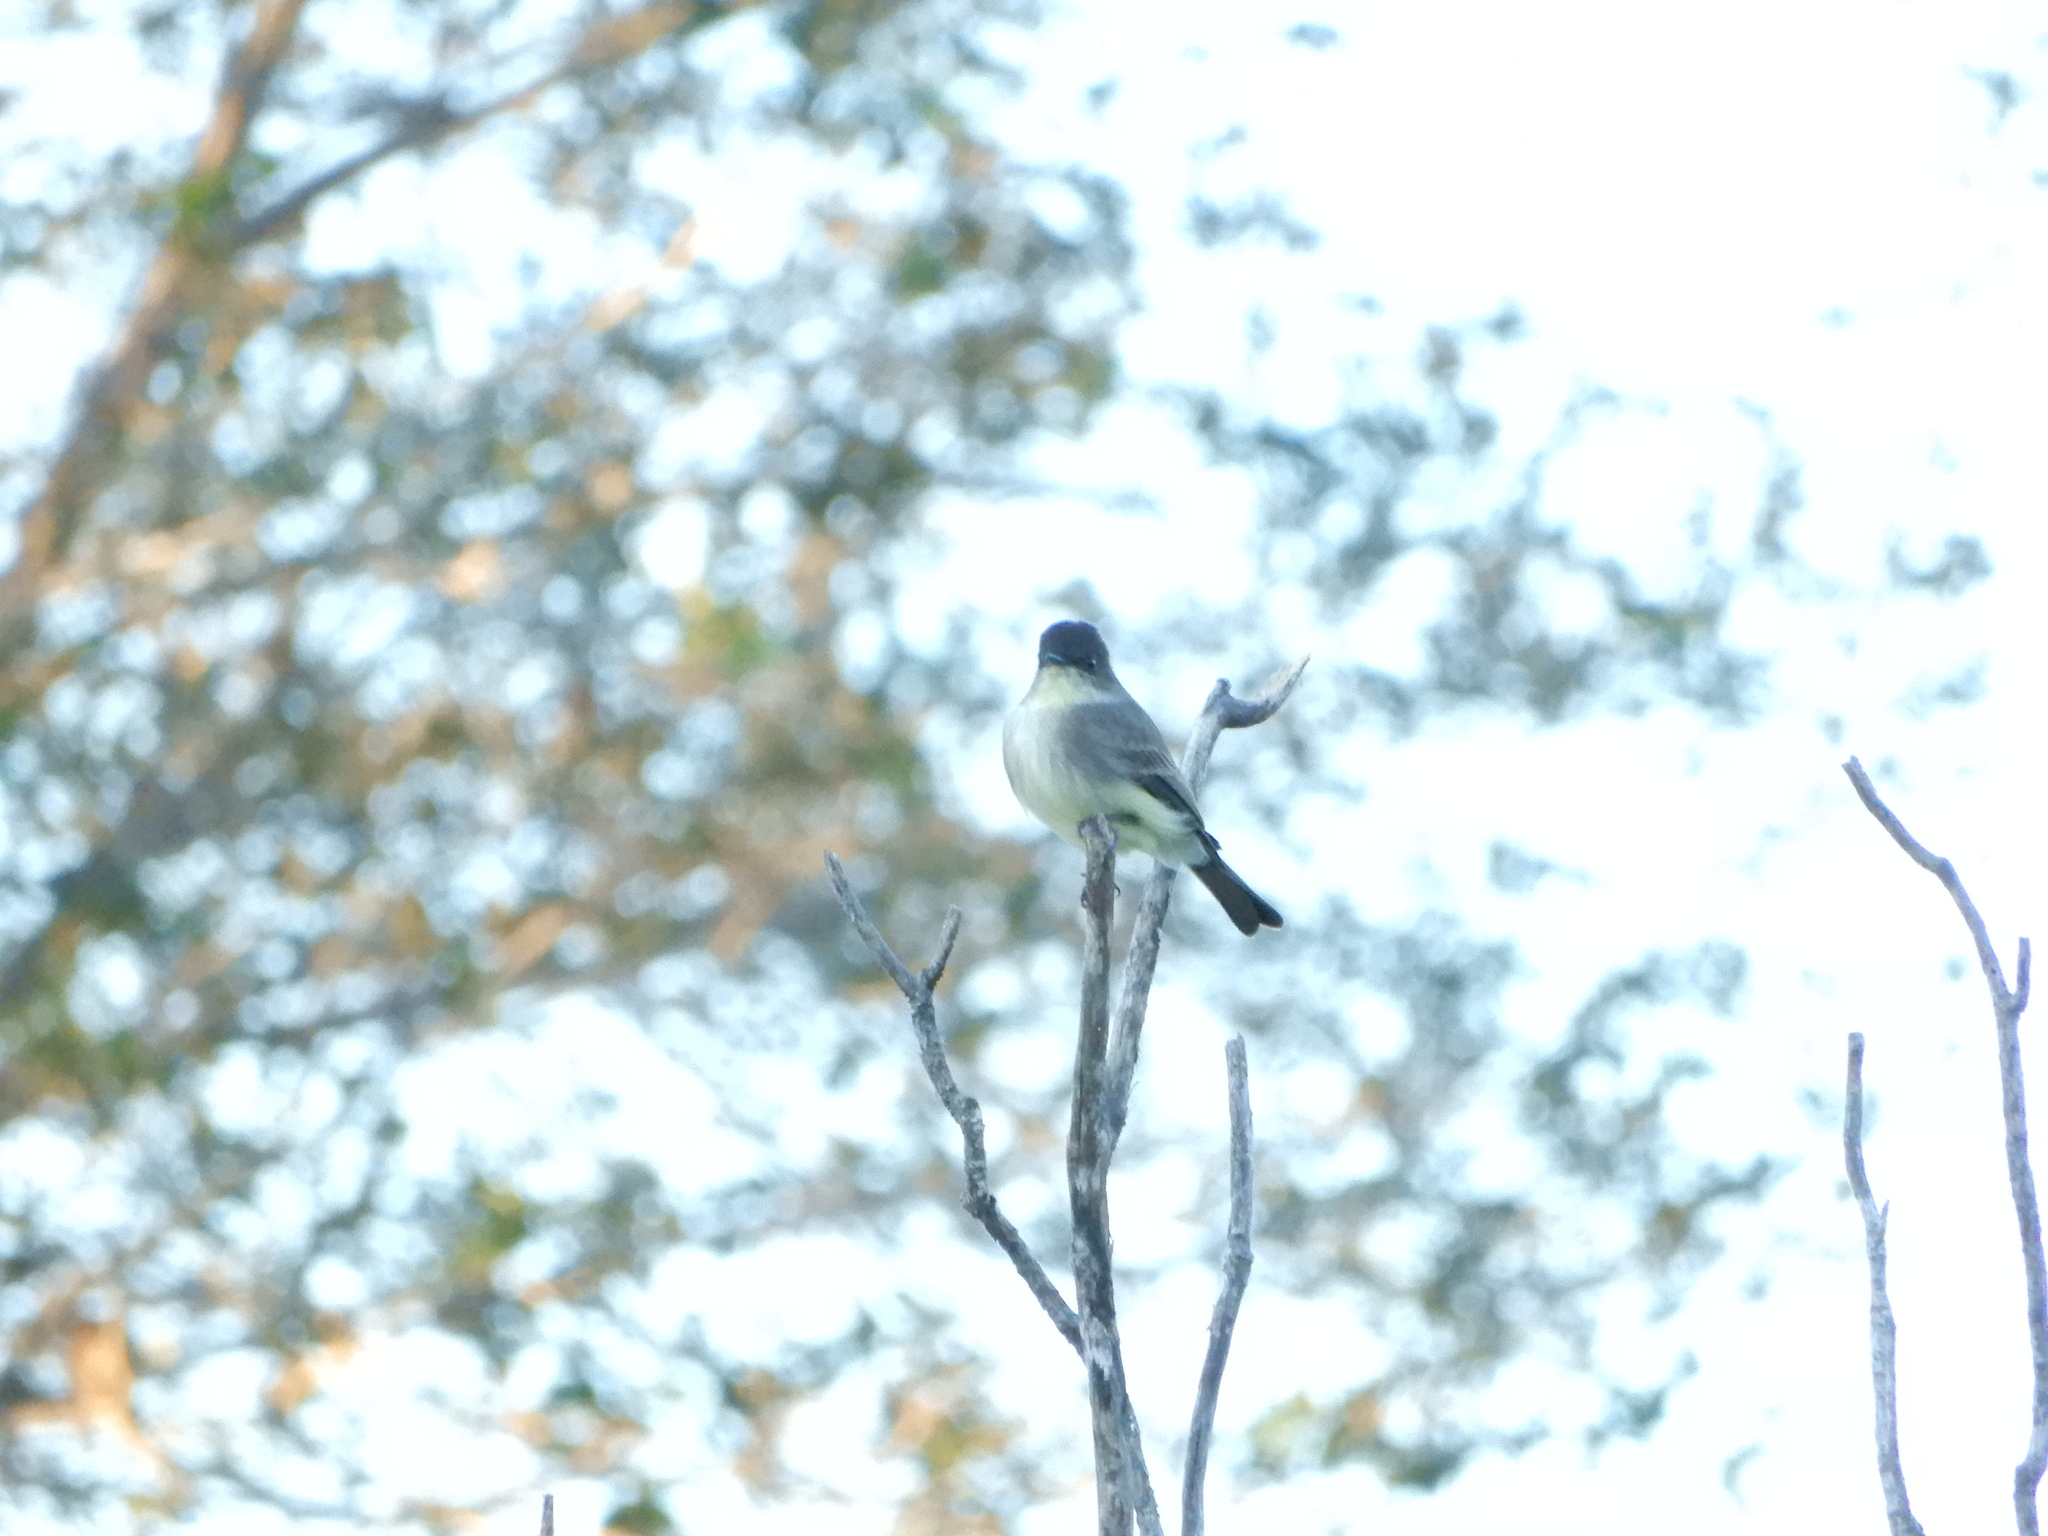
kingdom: Animalia
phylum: Chordata
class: Aves
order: Passeriformes
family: Tyrannidae
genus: Sayornis
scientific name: Sayornis phoebe
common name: Eastern phoebe
